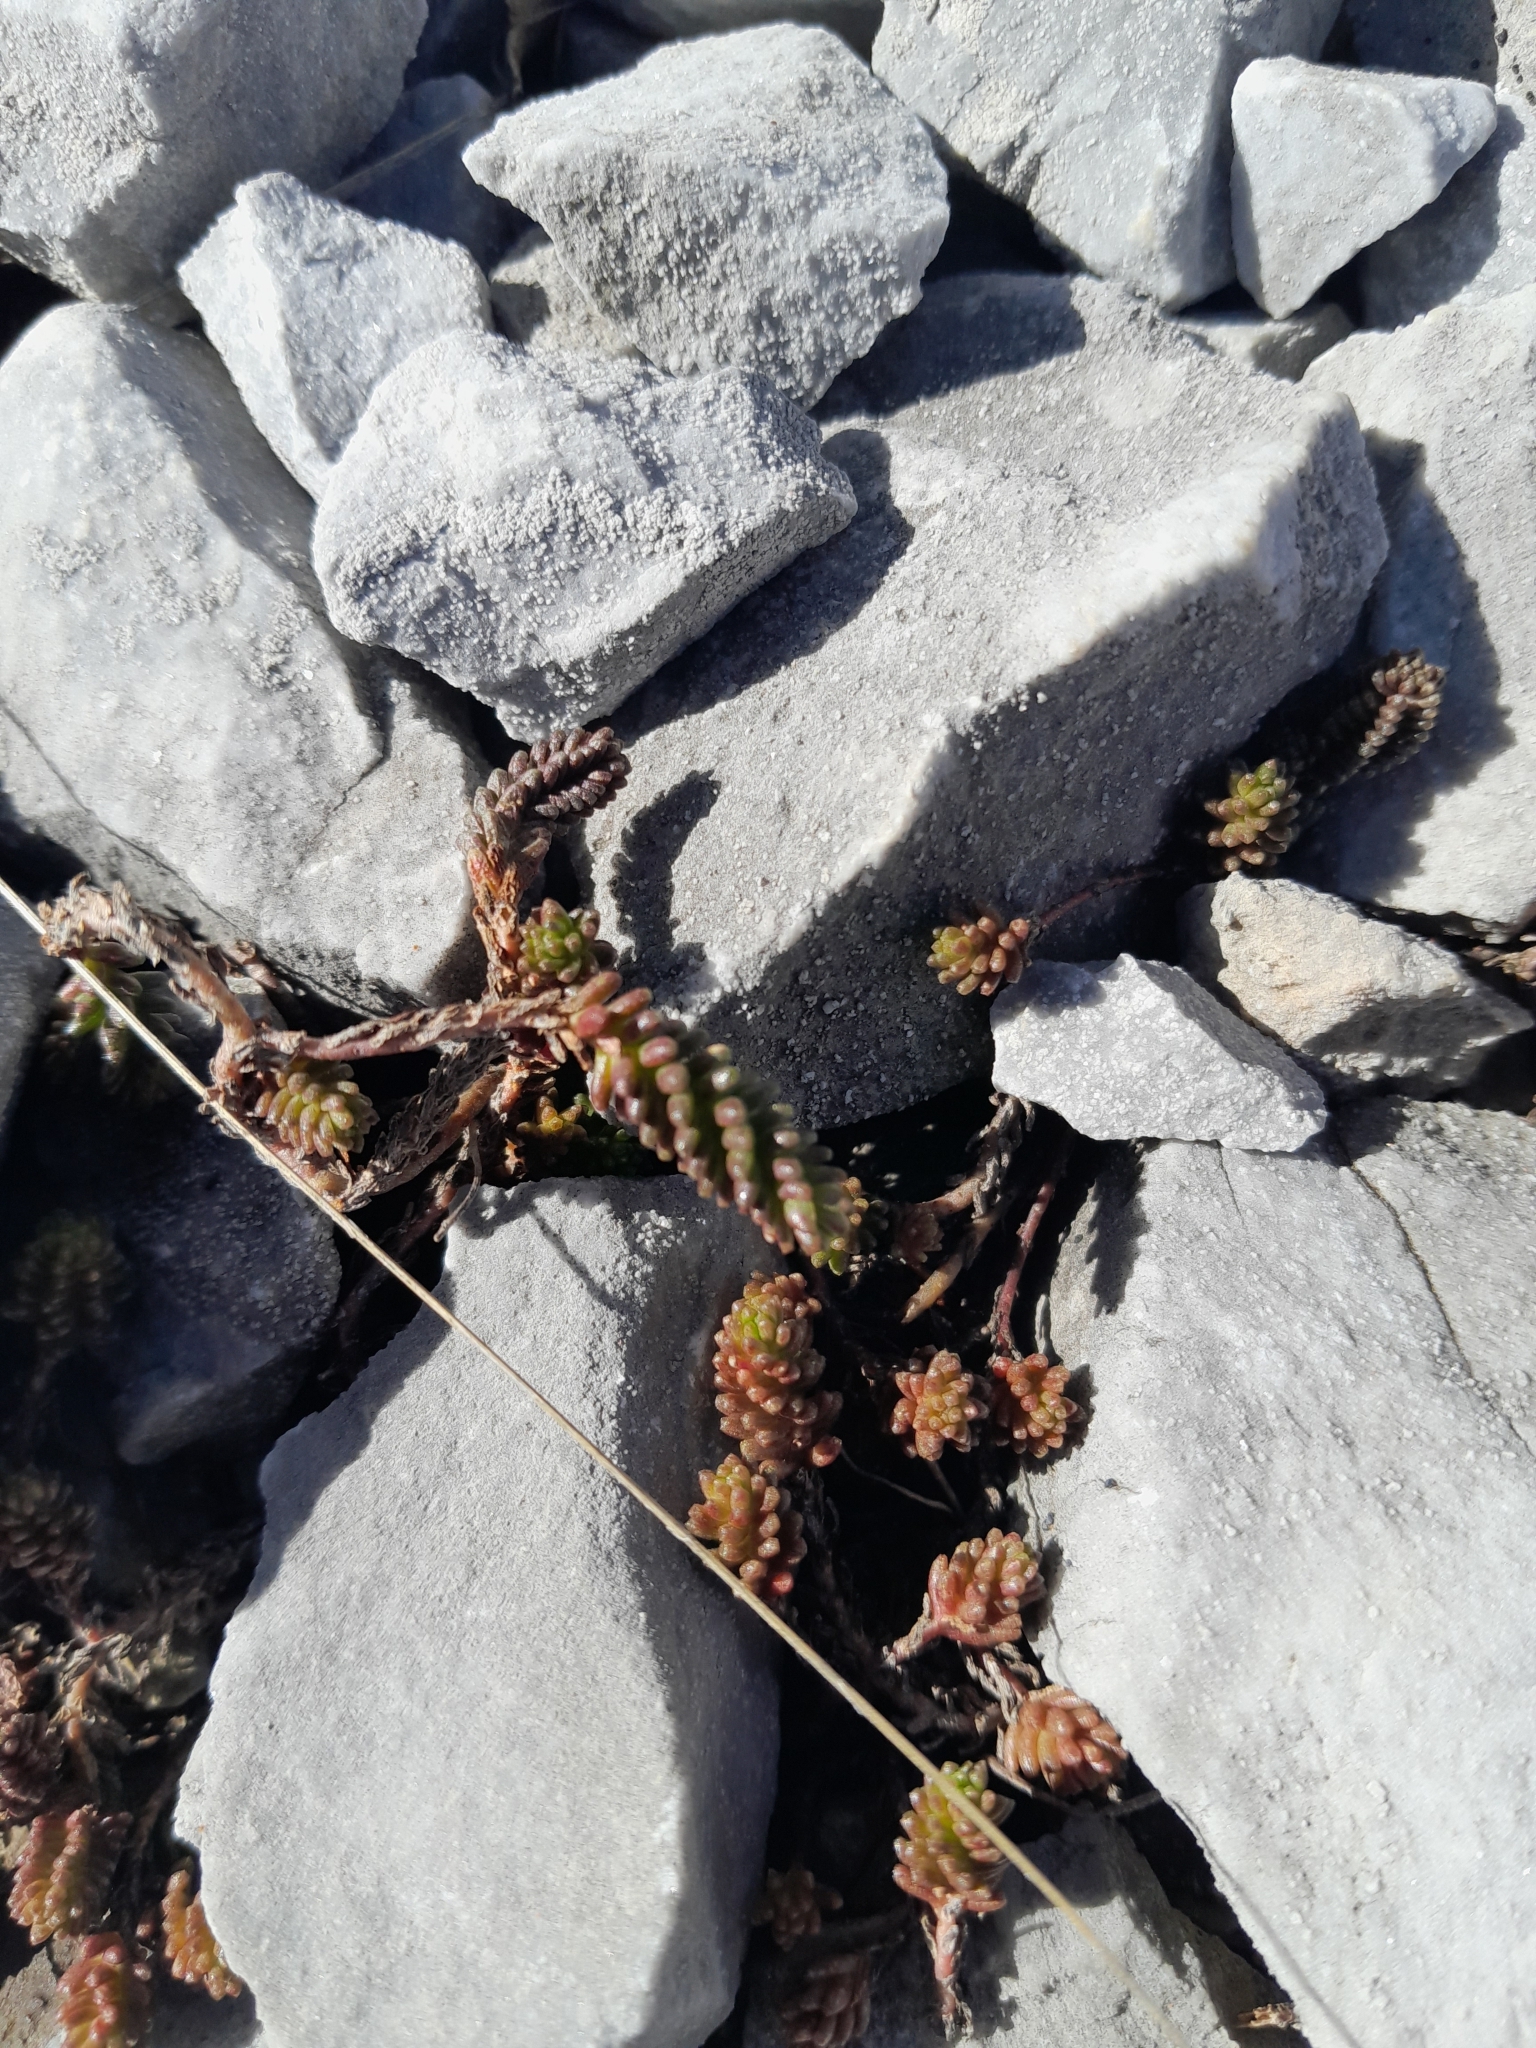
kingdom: Plantae
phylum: Tracheophyta
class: Magnoliopsida
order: Saxifragales
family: Crassulaceae
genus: Sedum
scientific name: Sedum sexangulare
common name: Tasteless stonecrop
